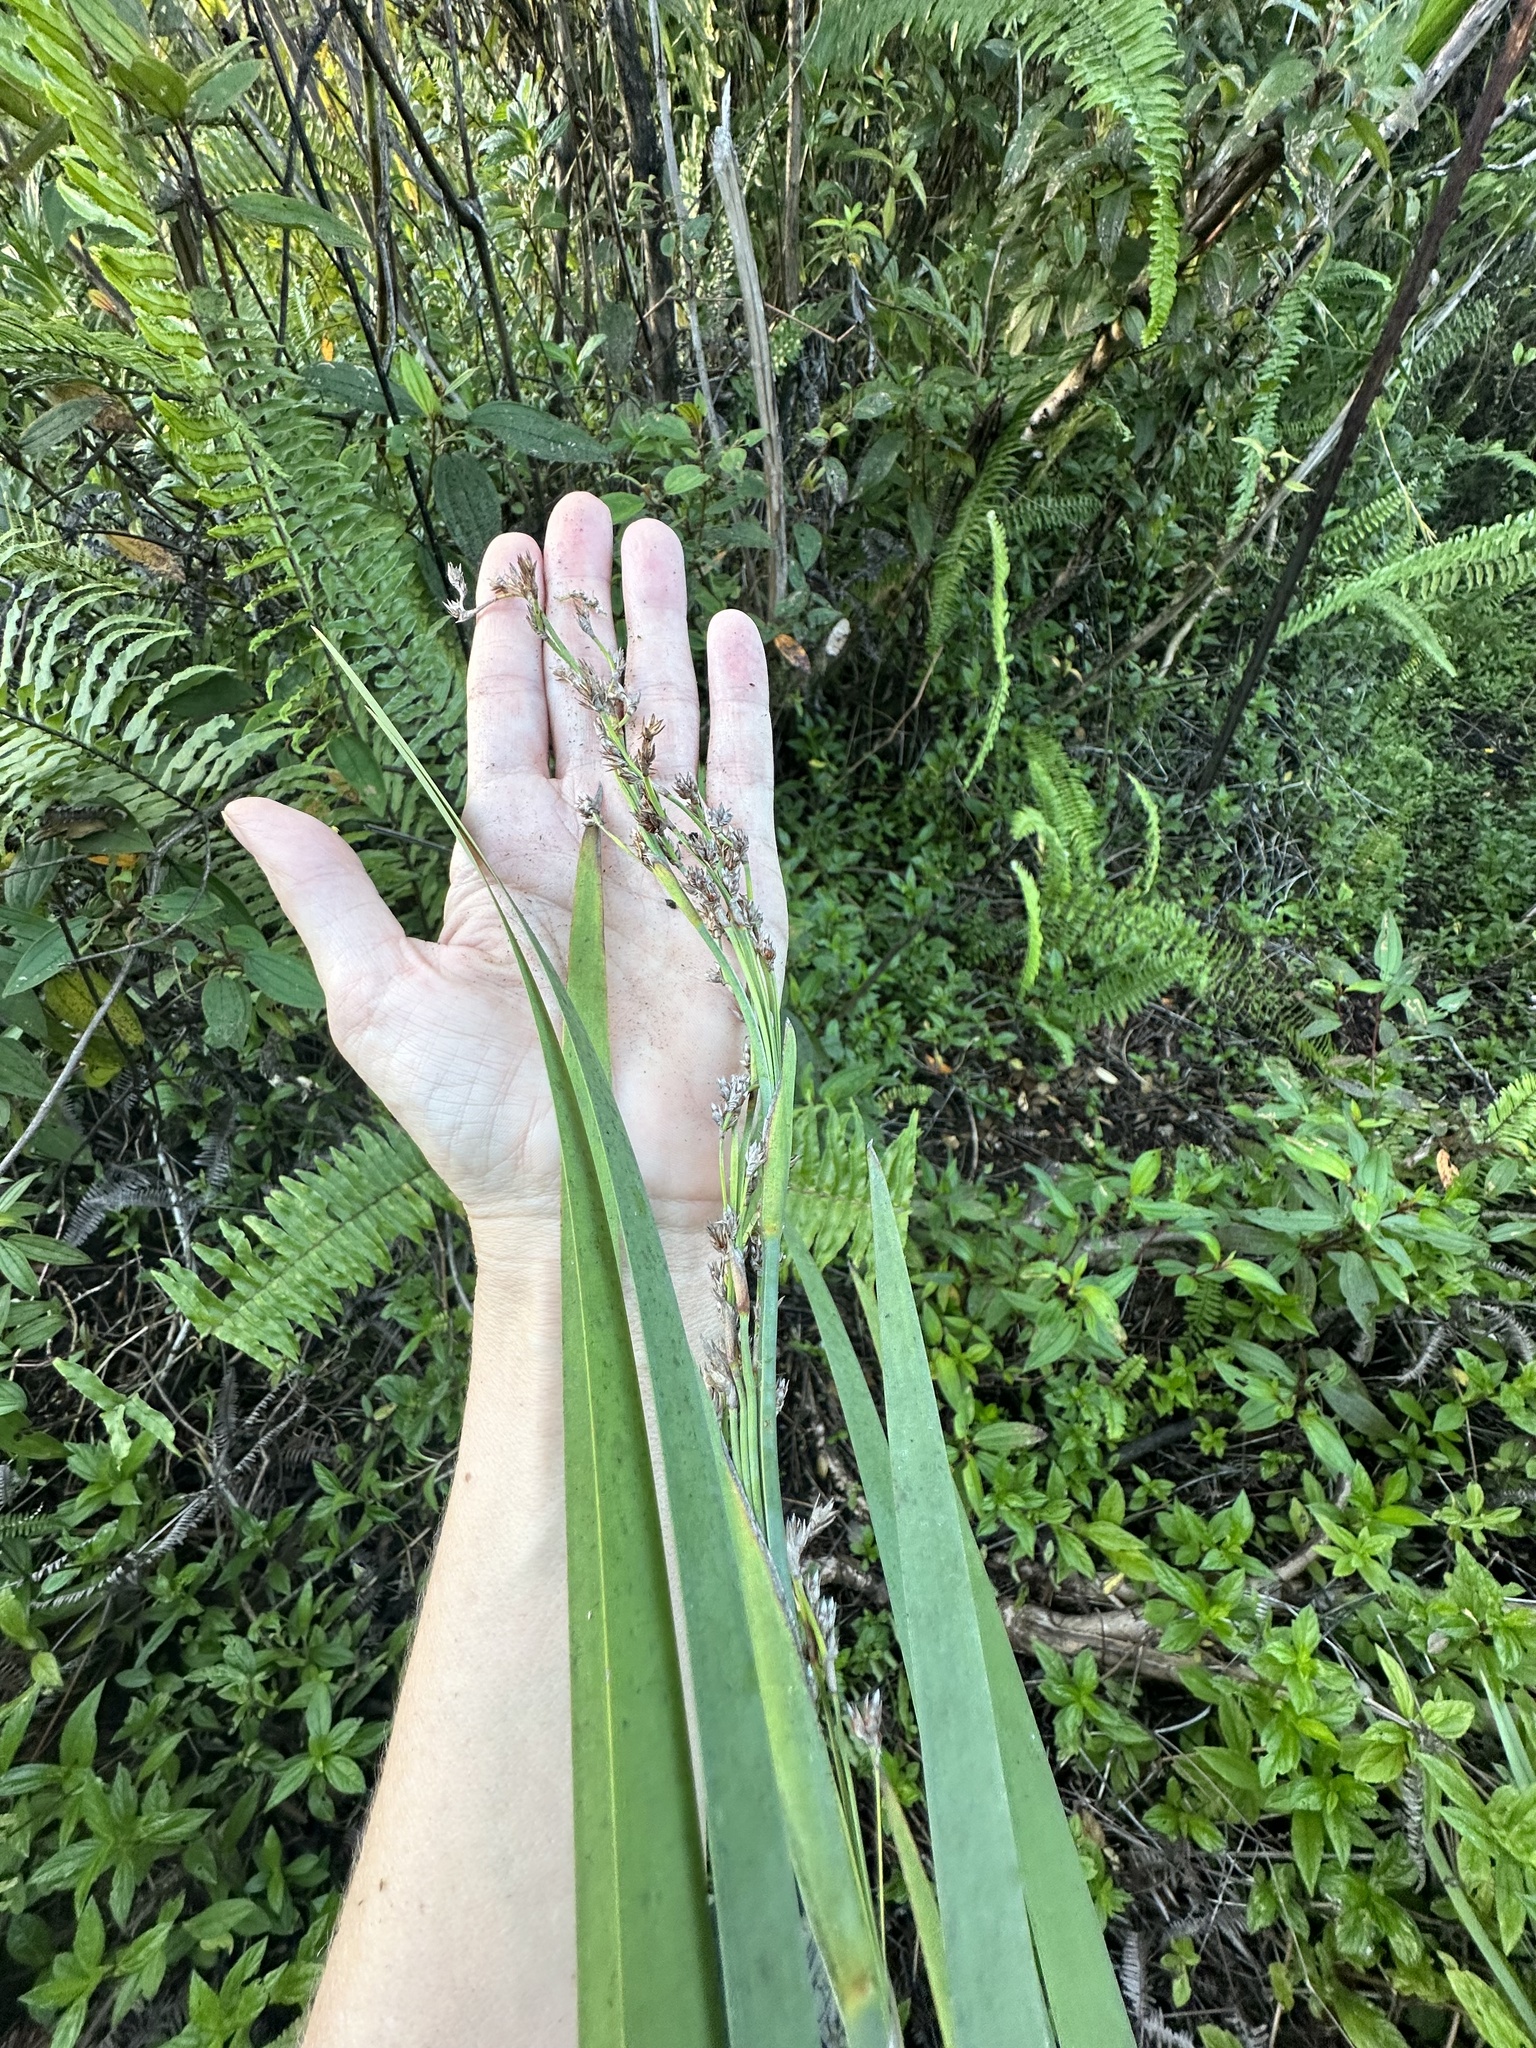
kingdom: Plantae
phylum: Tracheophyta
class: Liliopsida
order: Poales
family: Cyperaceae
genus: Machaerina
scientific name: Machaerina mariscoides
